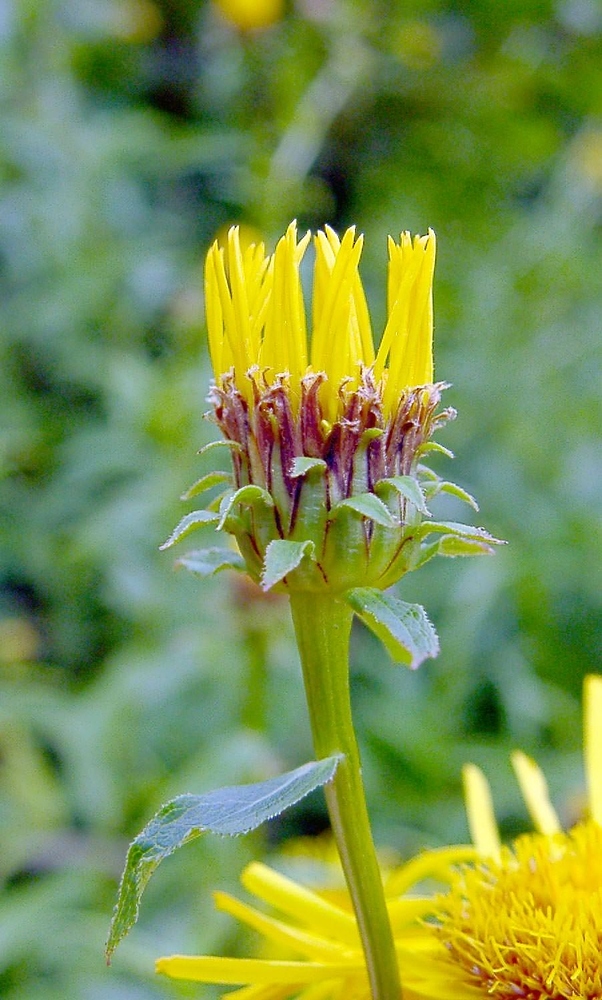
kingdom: Plantae
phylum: Tracheophyta
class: Magnoliopsida
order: Asterales
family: Asteraceae
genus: Pentanema
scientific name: Pentanema salicinum
